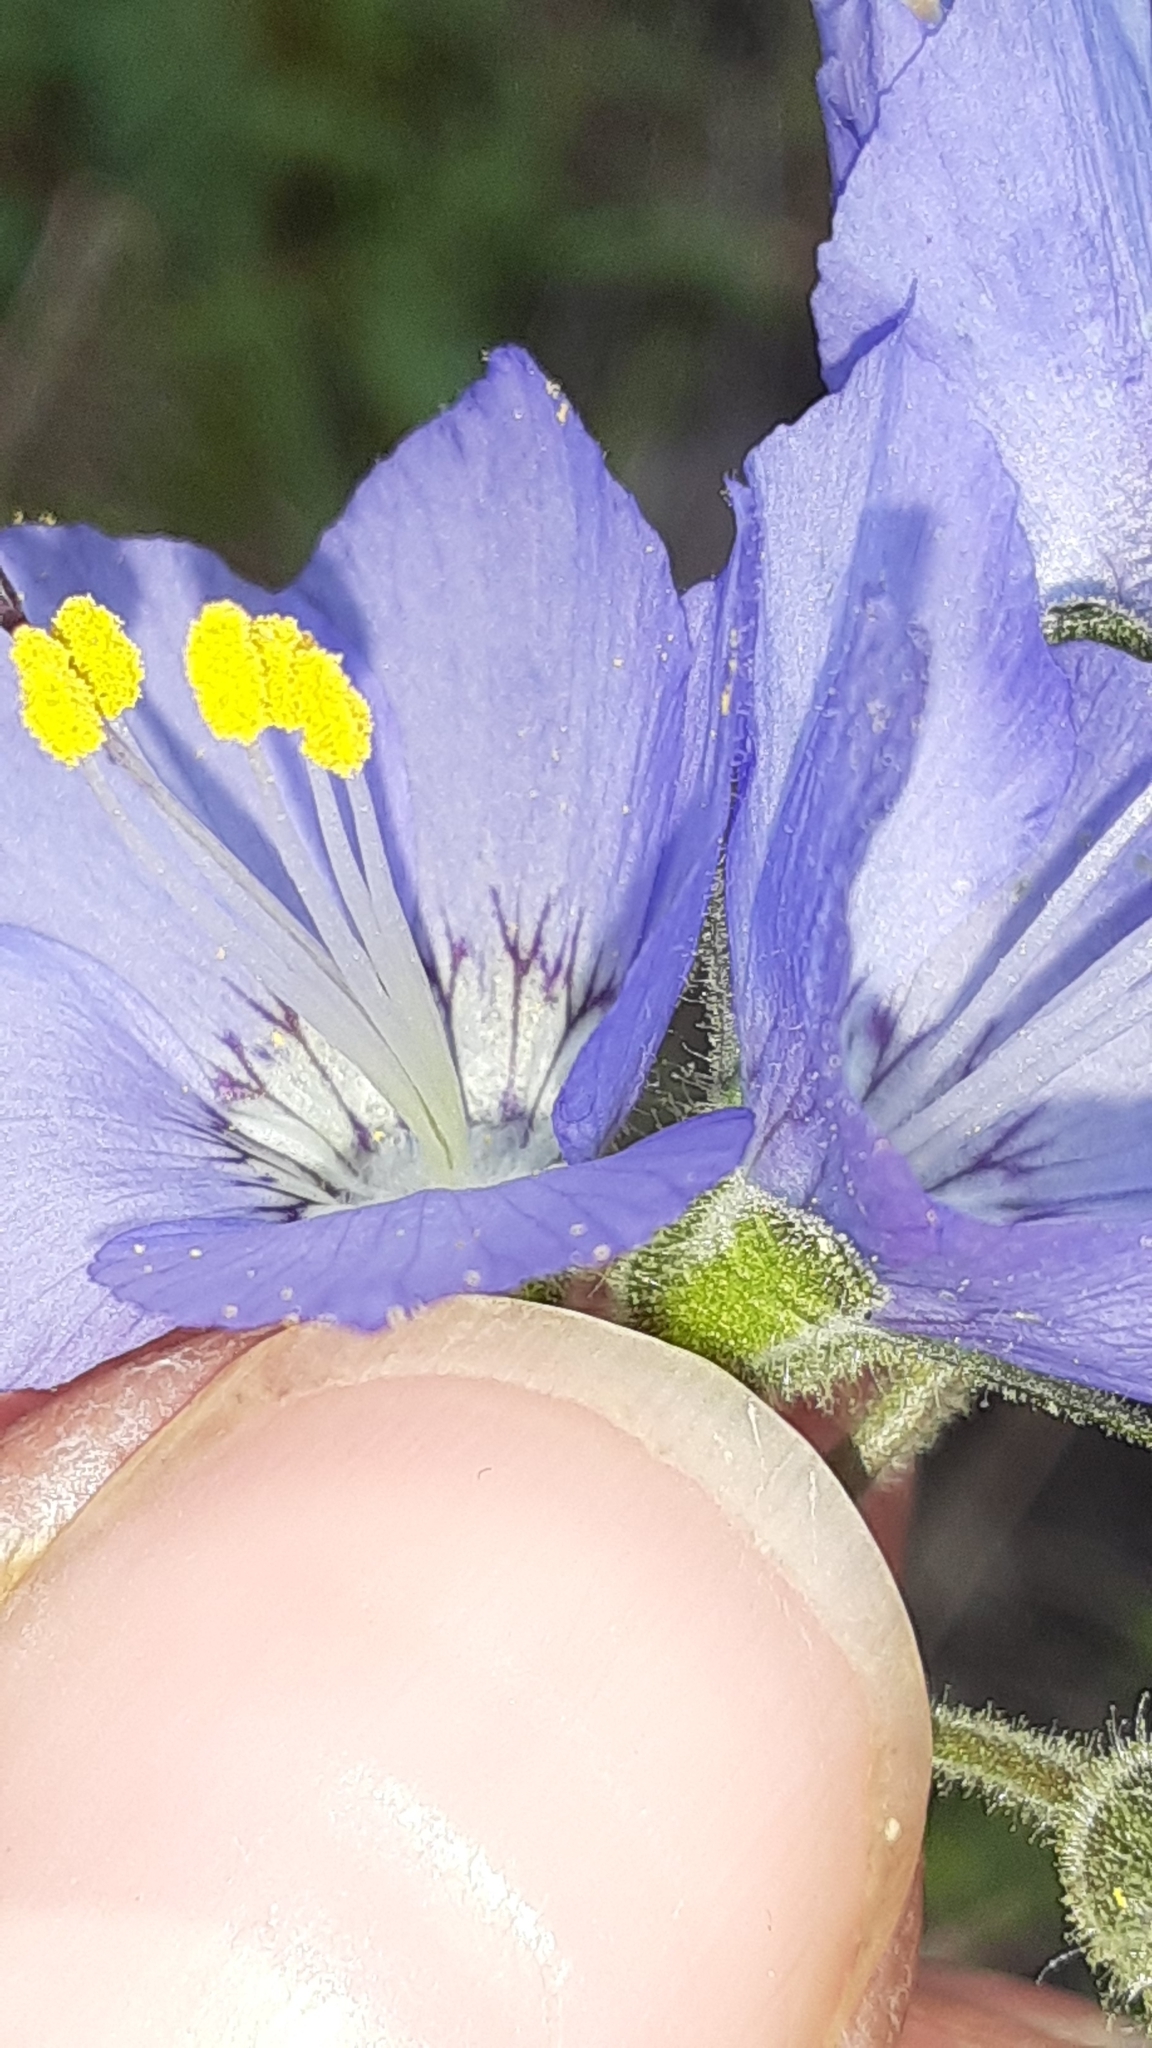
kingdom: Plantae
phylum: Tracheophyta
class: Magnoliopsida
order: Ericales
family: Polemoniaceae
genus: Polemonium
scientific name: Polemonium acutiflorum
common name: Tall jacob's-ladder
